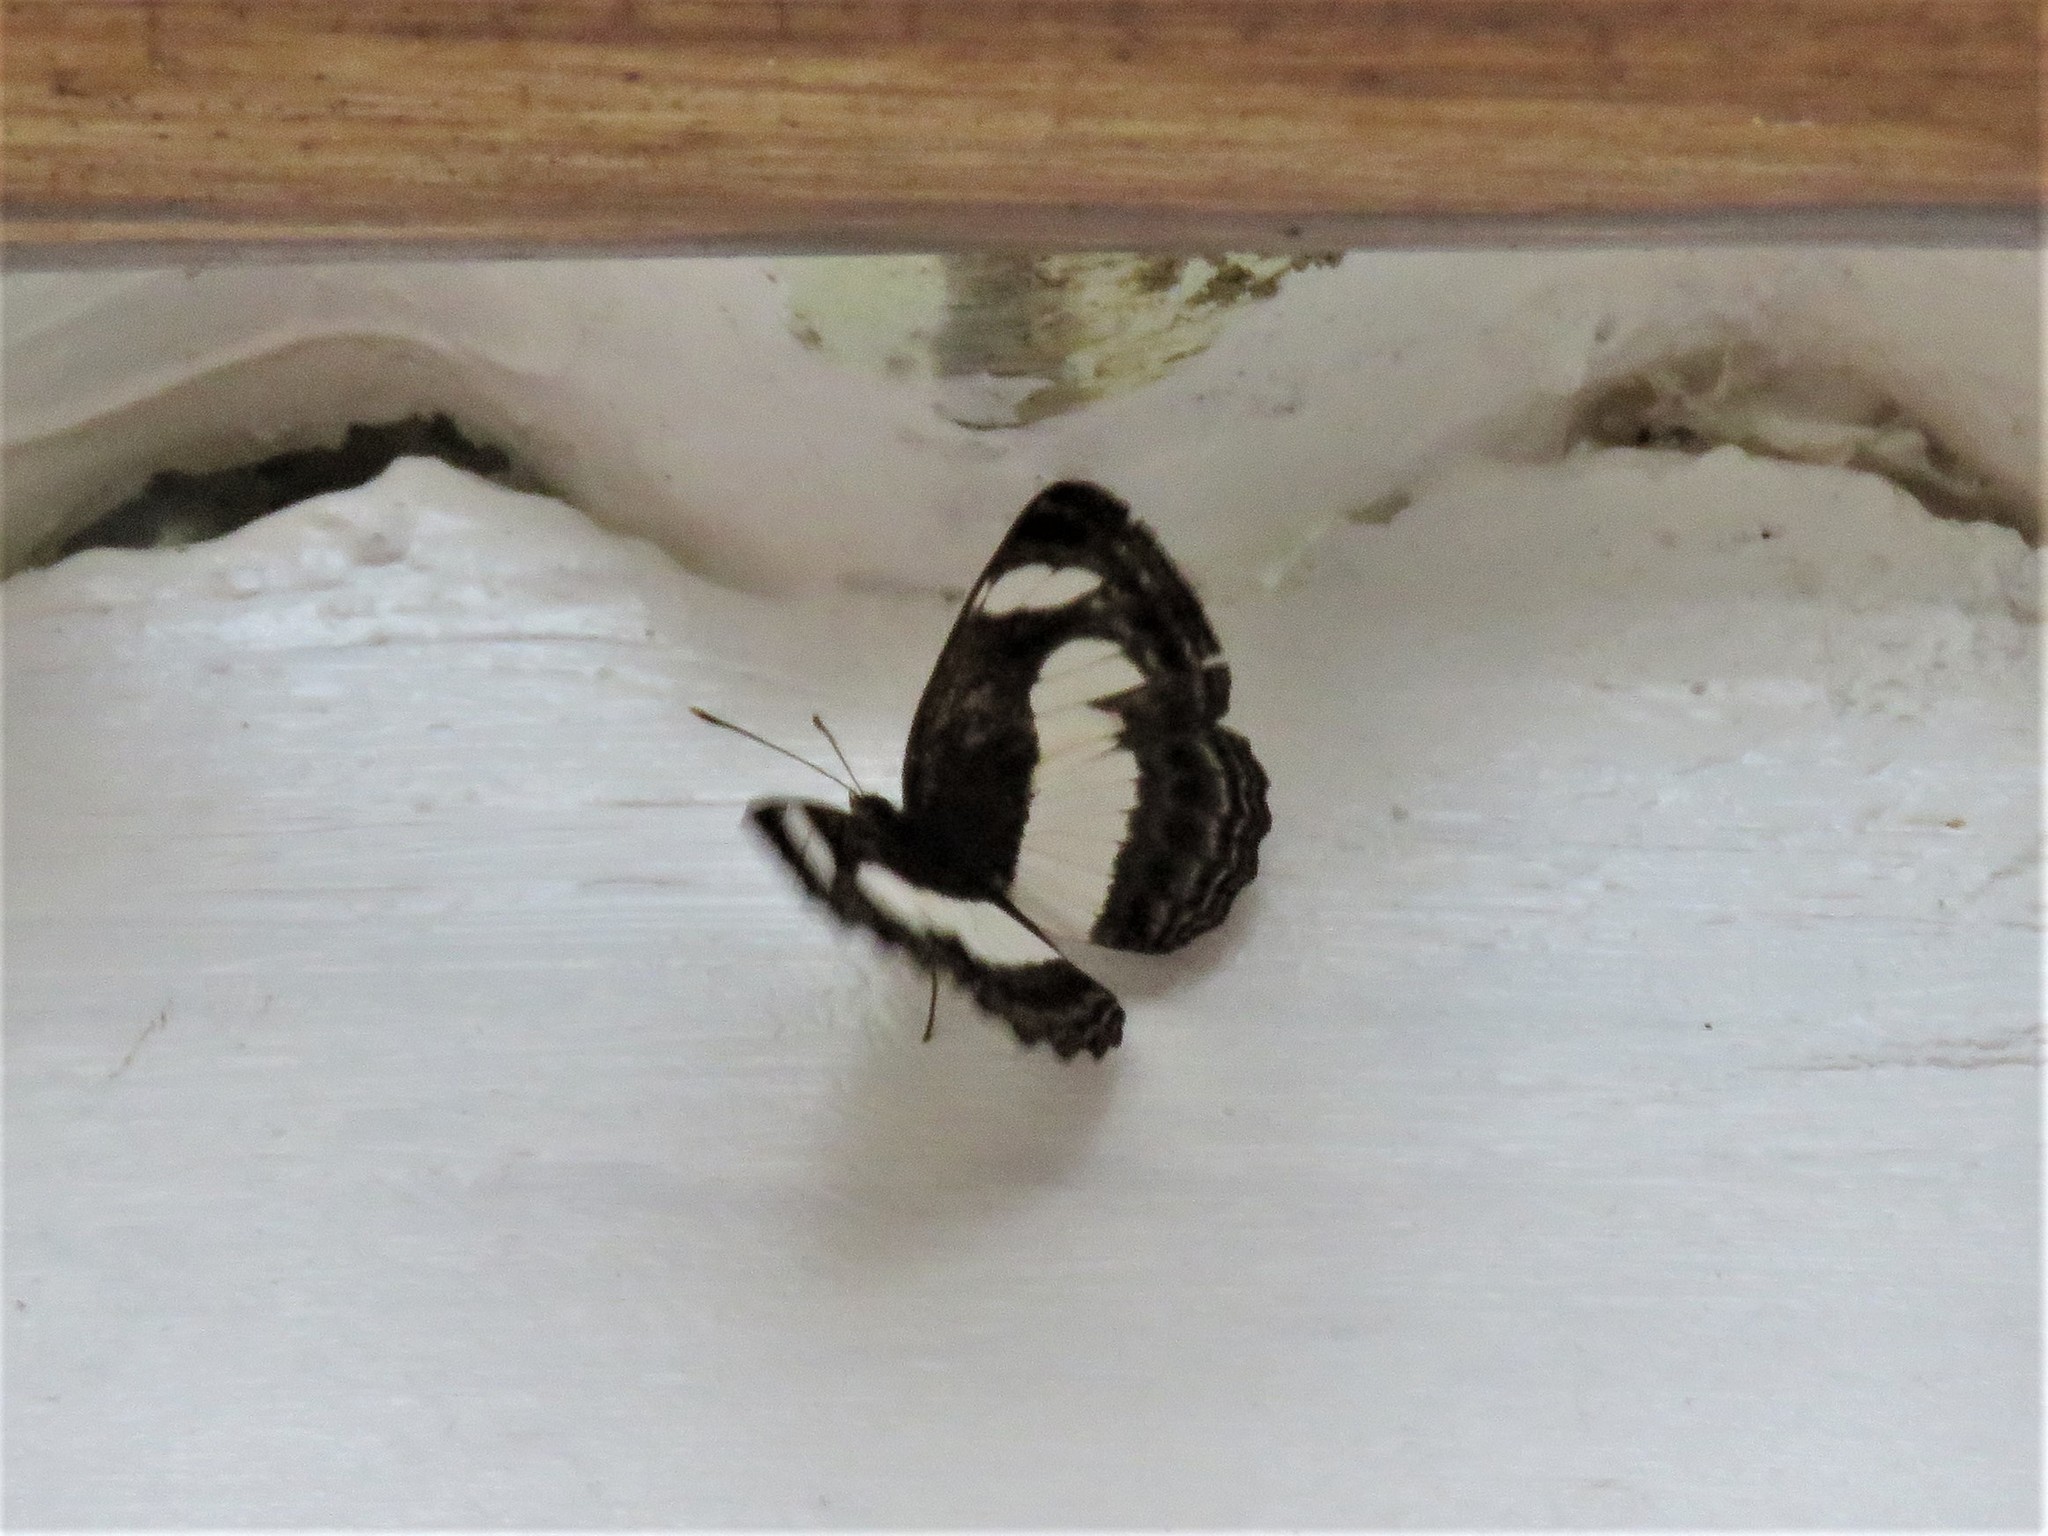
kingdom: Animalia
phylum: Arthropoda
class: Insecta
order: Lepidoptera
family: Nymphalidae
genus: Neptis
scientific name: Neptis nemetes
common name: Nemetes sailer
